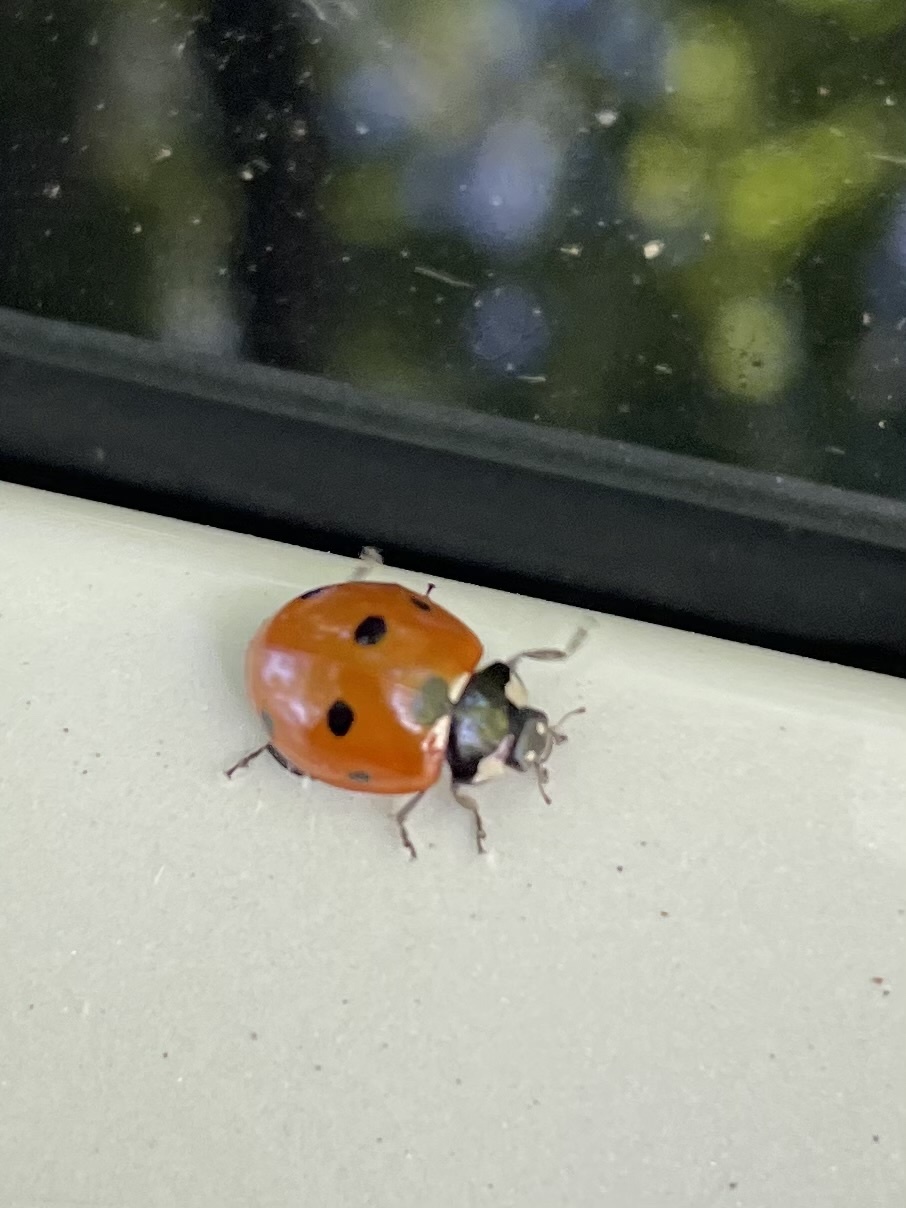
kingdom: Animalia
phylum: Arthropoda
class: Insecta
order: Coleoptera
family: Coccinellidae
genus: Coccinella
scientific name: Coccinella septempunctata
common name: Sevenspotted lady beetle
